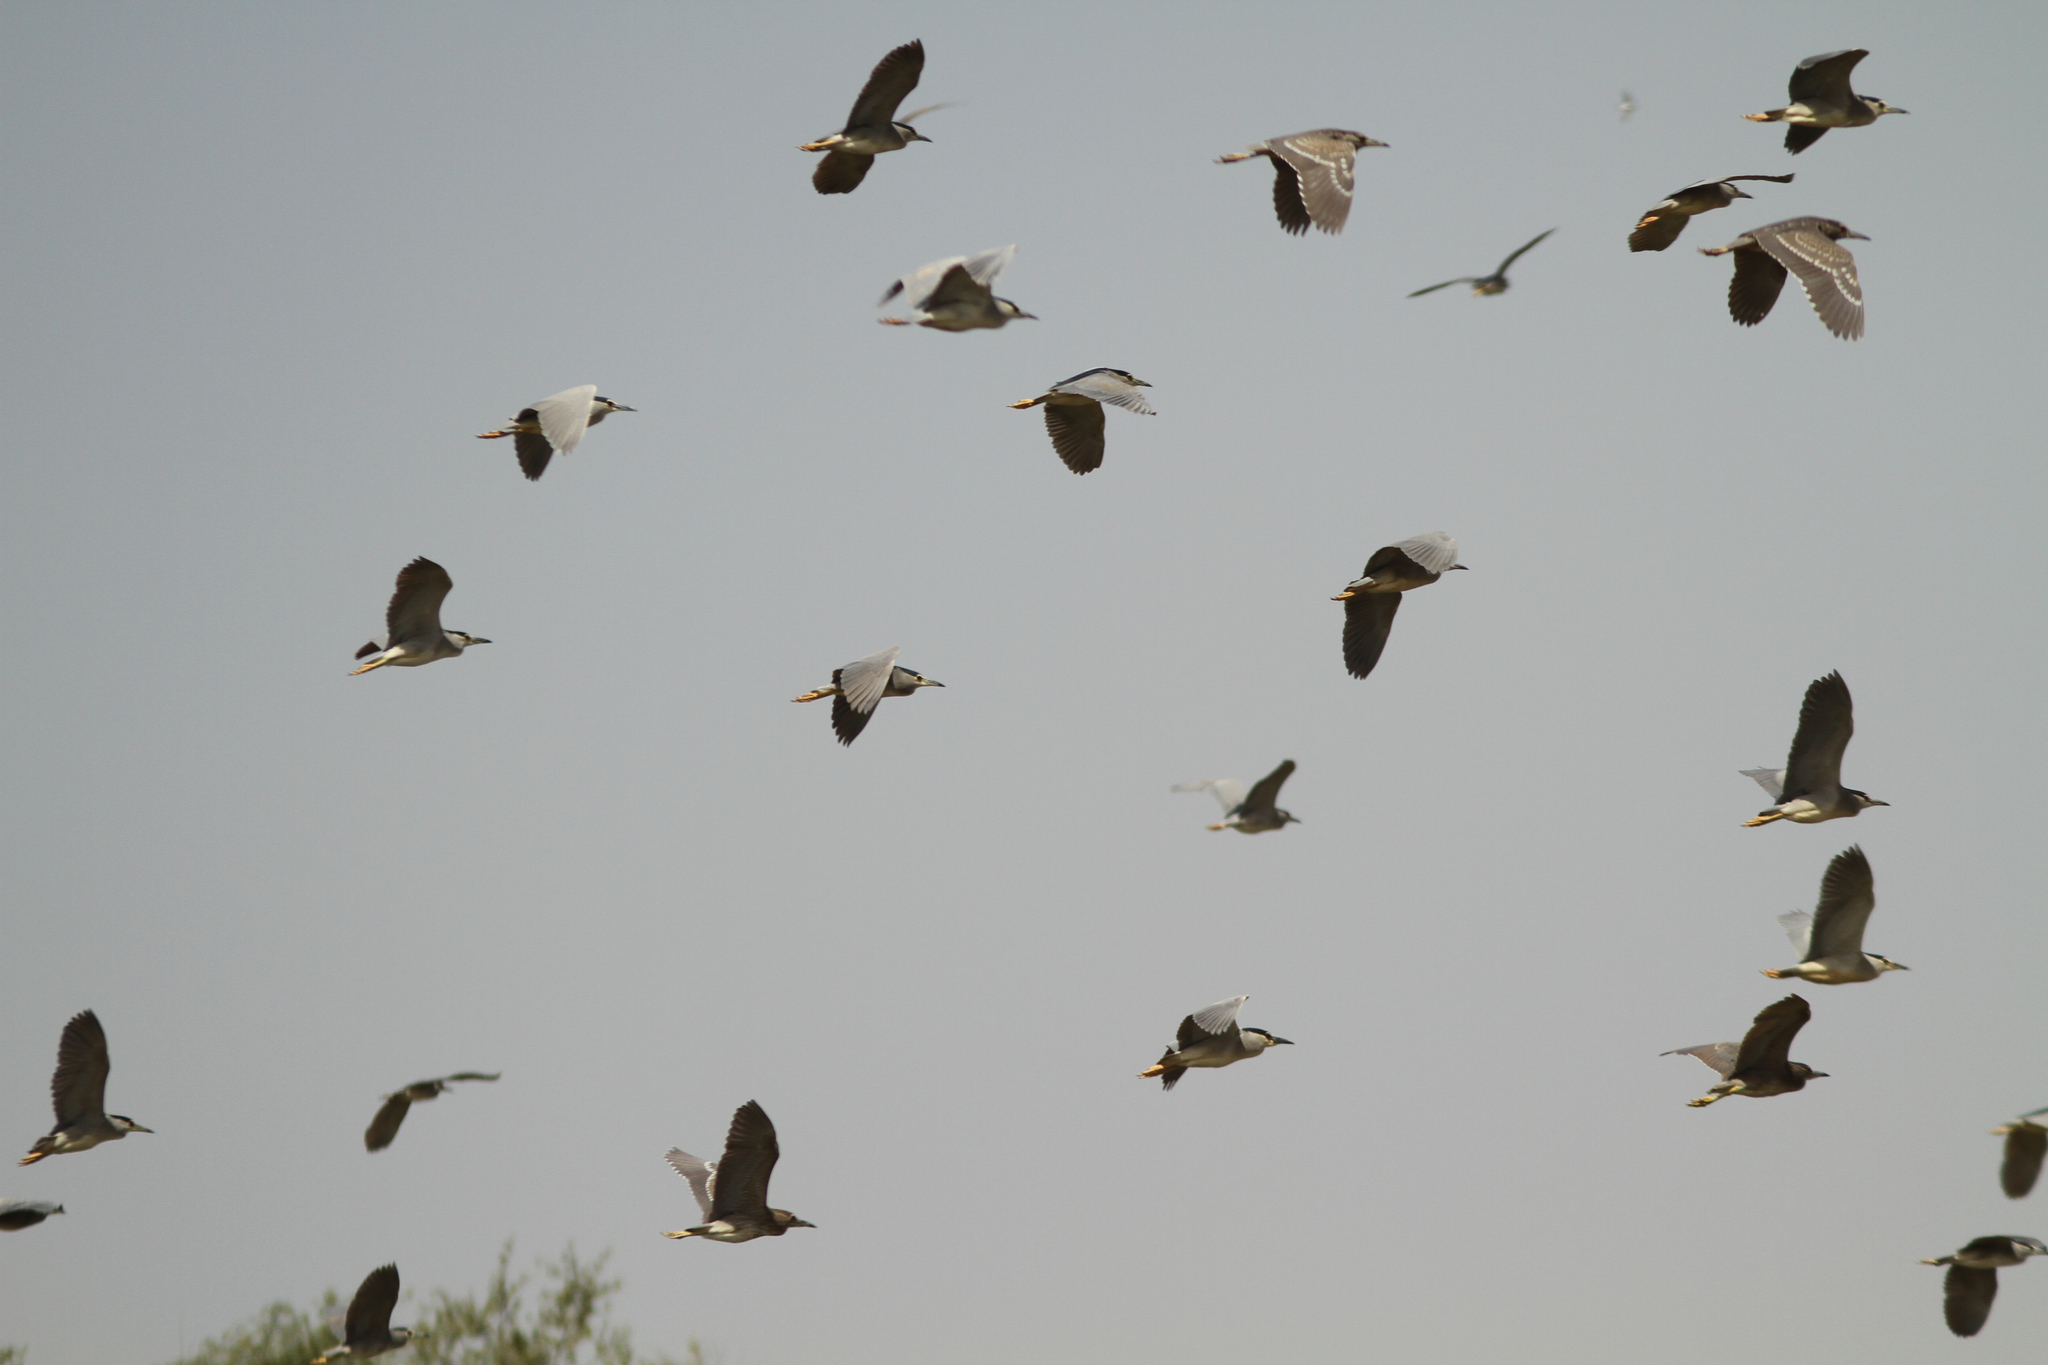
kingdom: Animalia
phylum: Chordata
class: Aves
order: Pelecaniformes
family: Ardeidae
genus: Nycticorax
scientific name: Nycticorax nycticorax
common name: Black-crowned night heron
